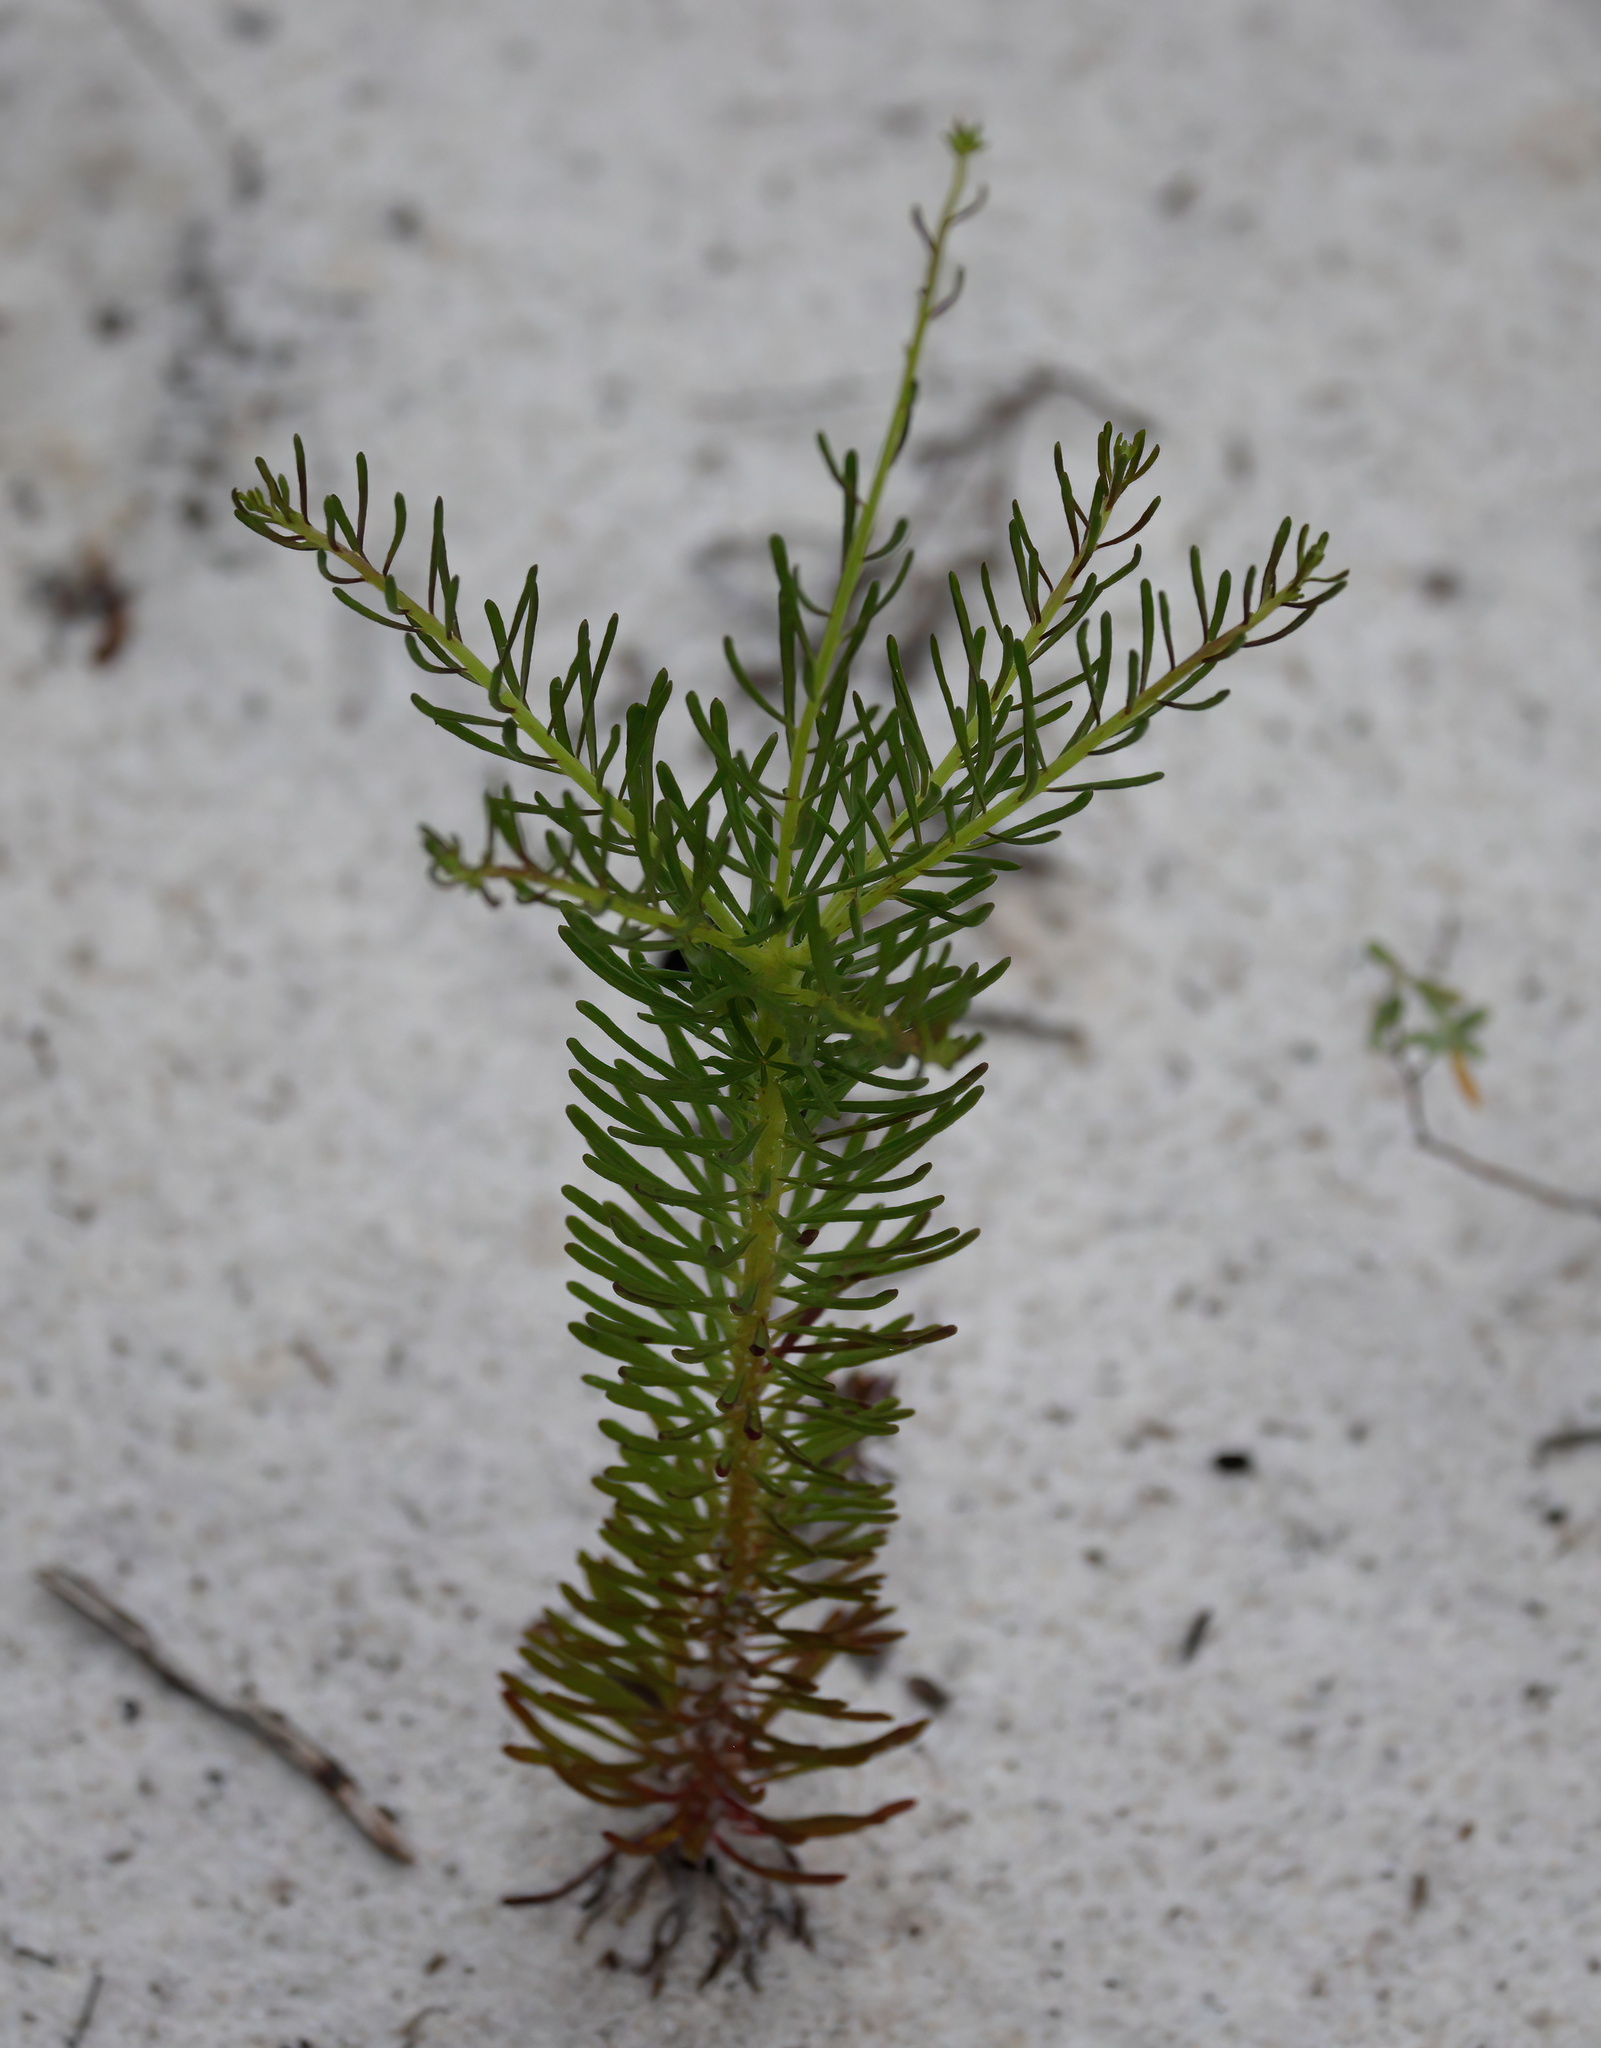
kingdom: Plantae
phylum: Tracheophyta
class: Magnoliopsida
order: Asterales
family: Asteraceae
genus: Balduina
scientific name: Balduina angustifolia
